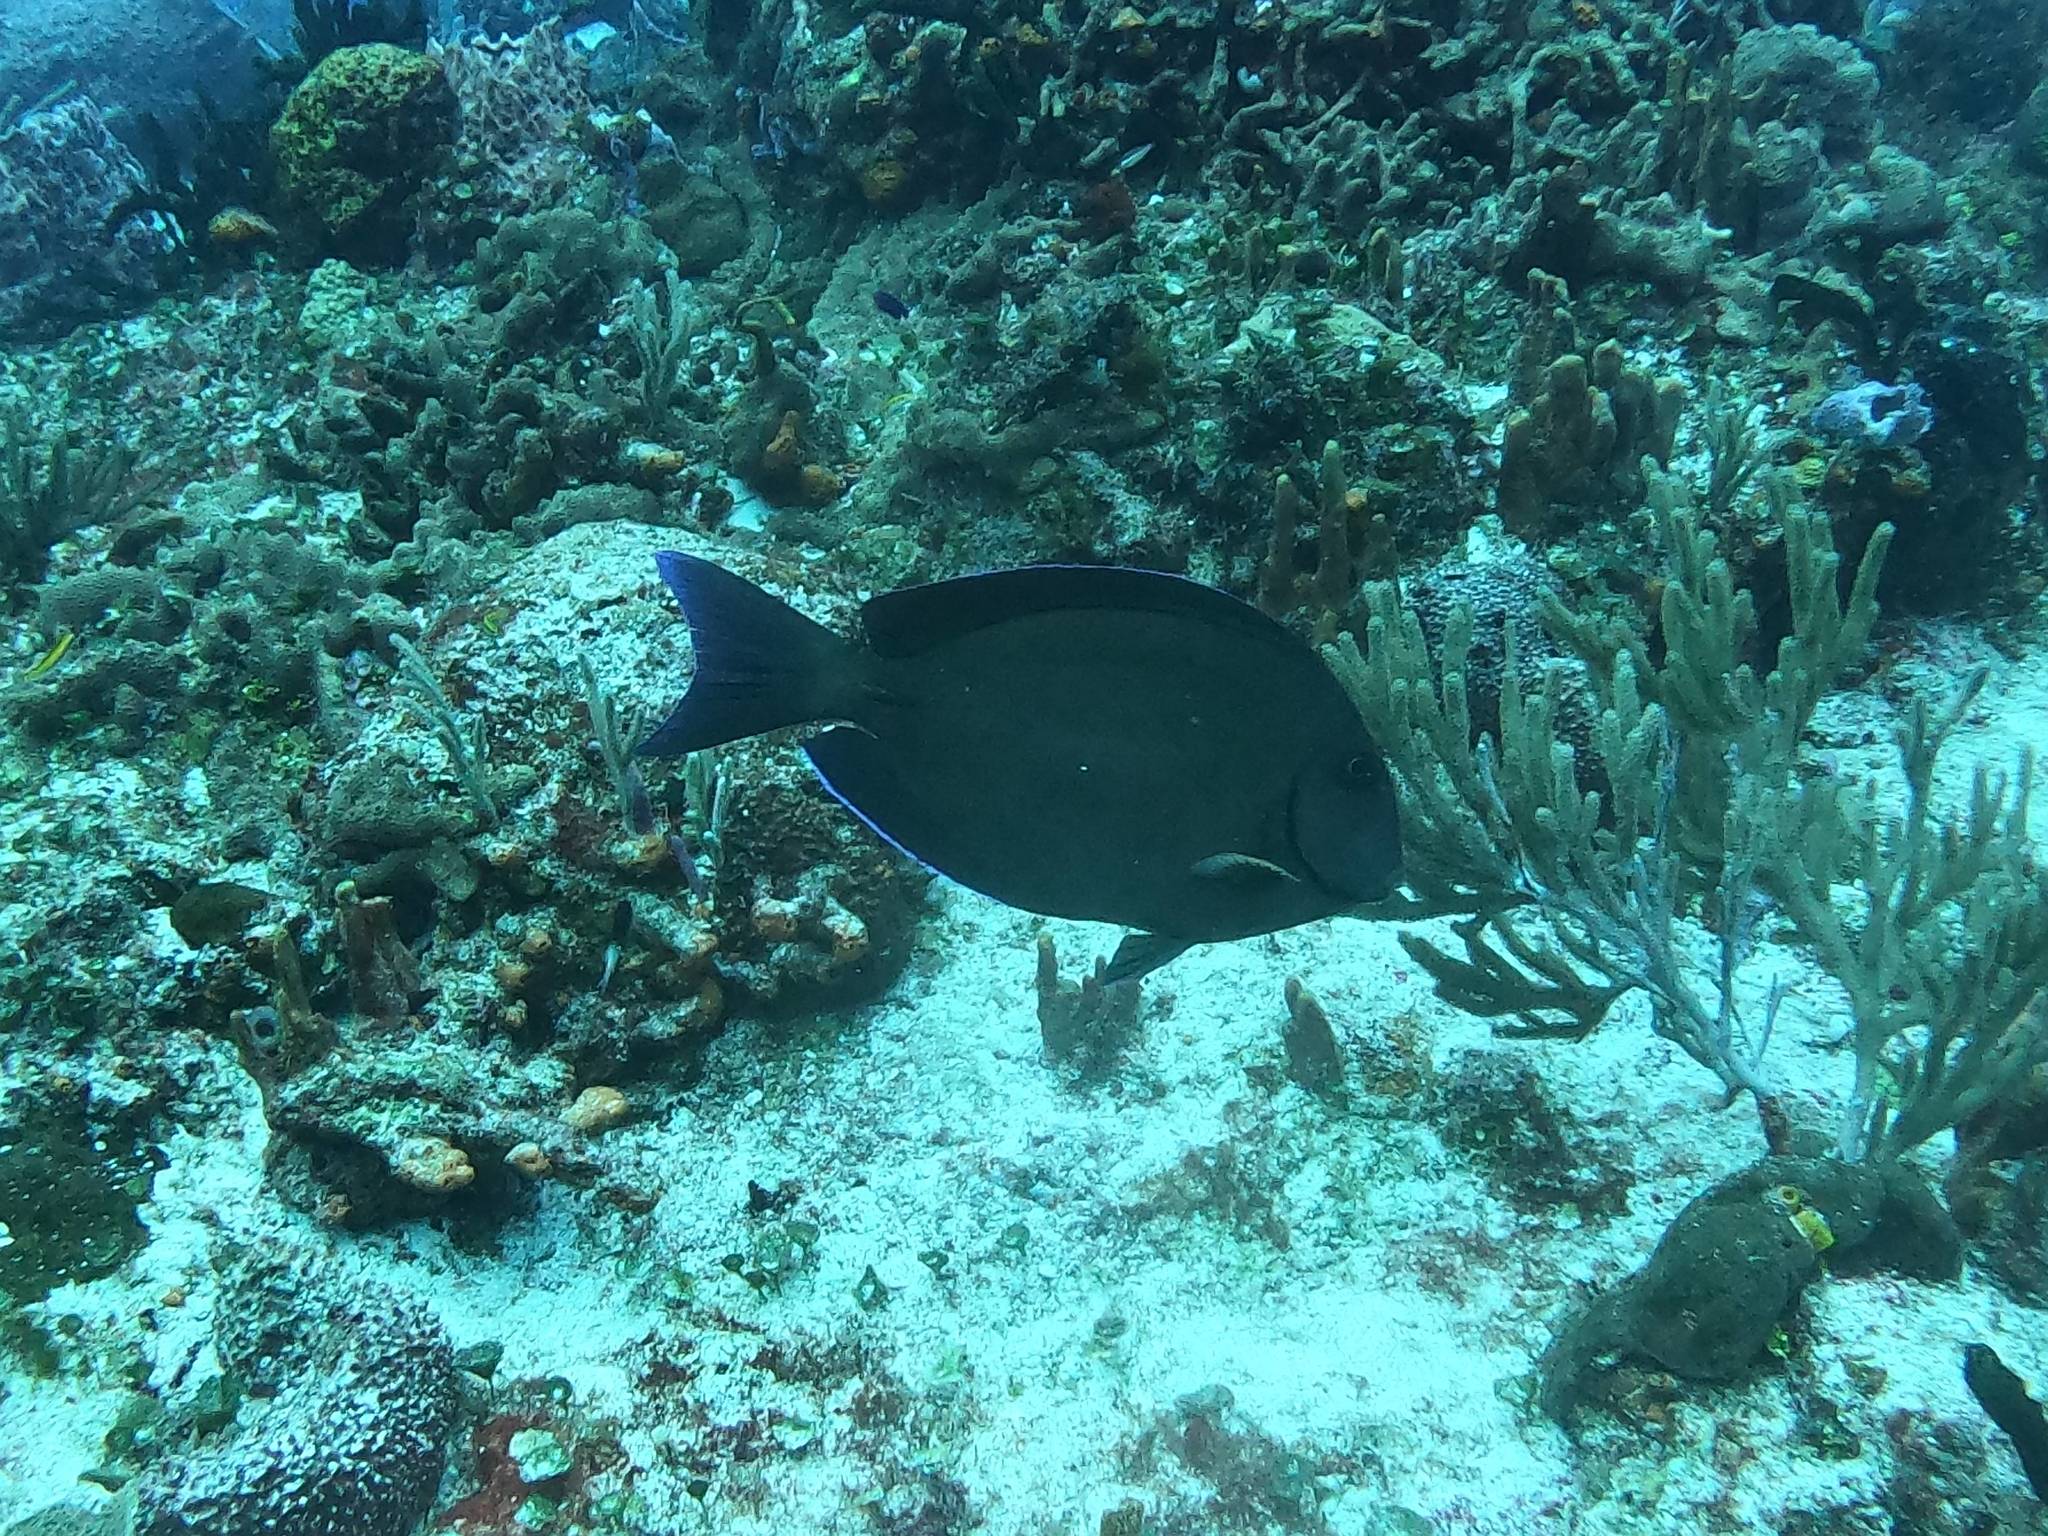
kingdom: Animalia
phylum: Chordata
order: Perciformes
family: Acanthuridae
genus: Acanthurus
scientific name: Acanthurus bahianus
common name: Ocean surgeon
